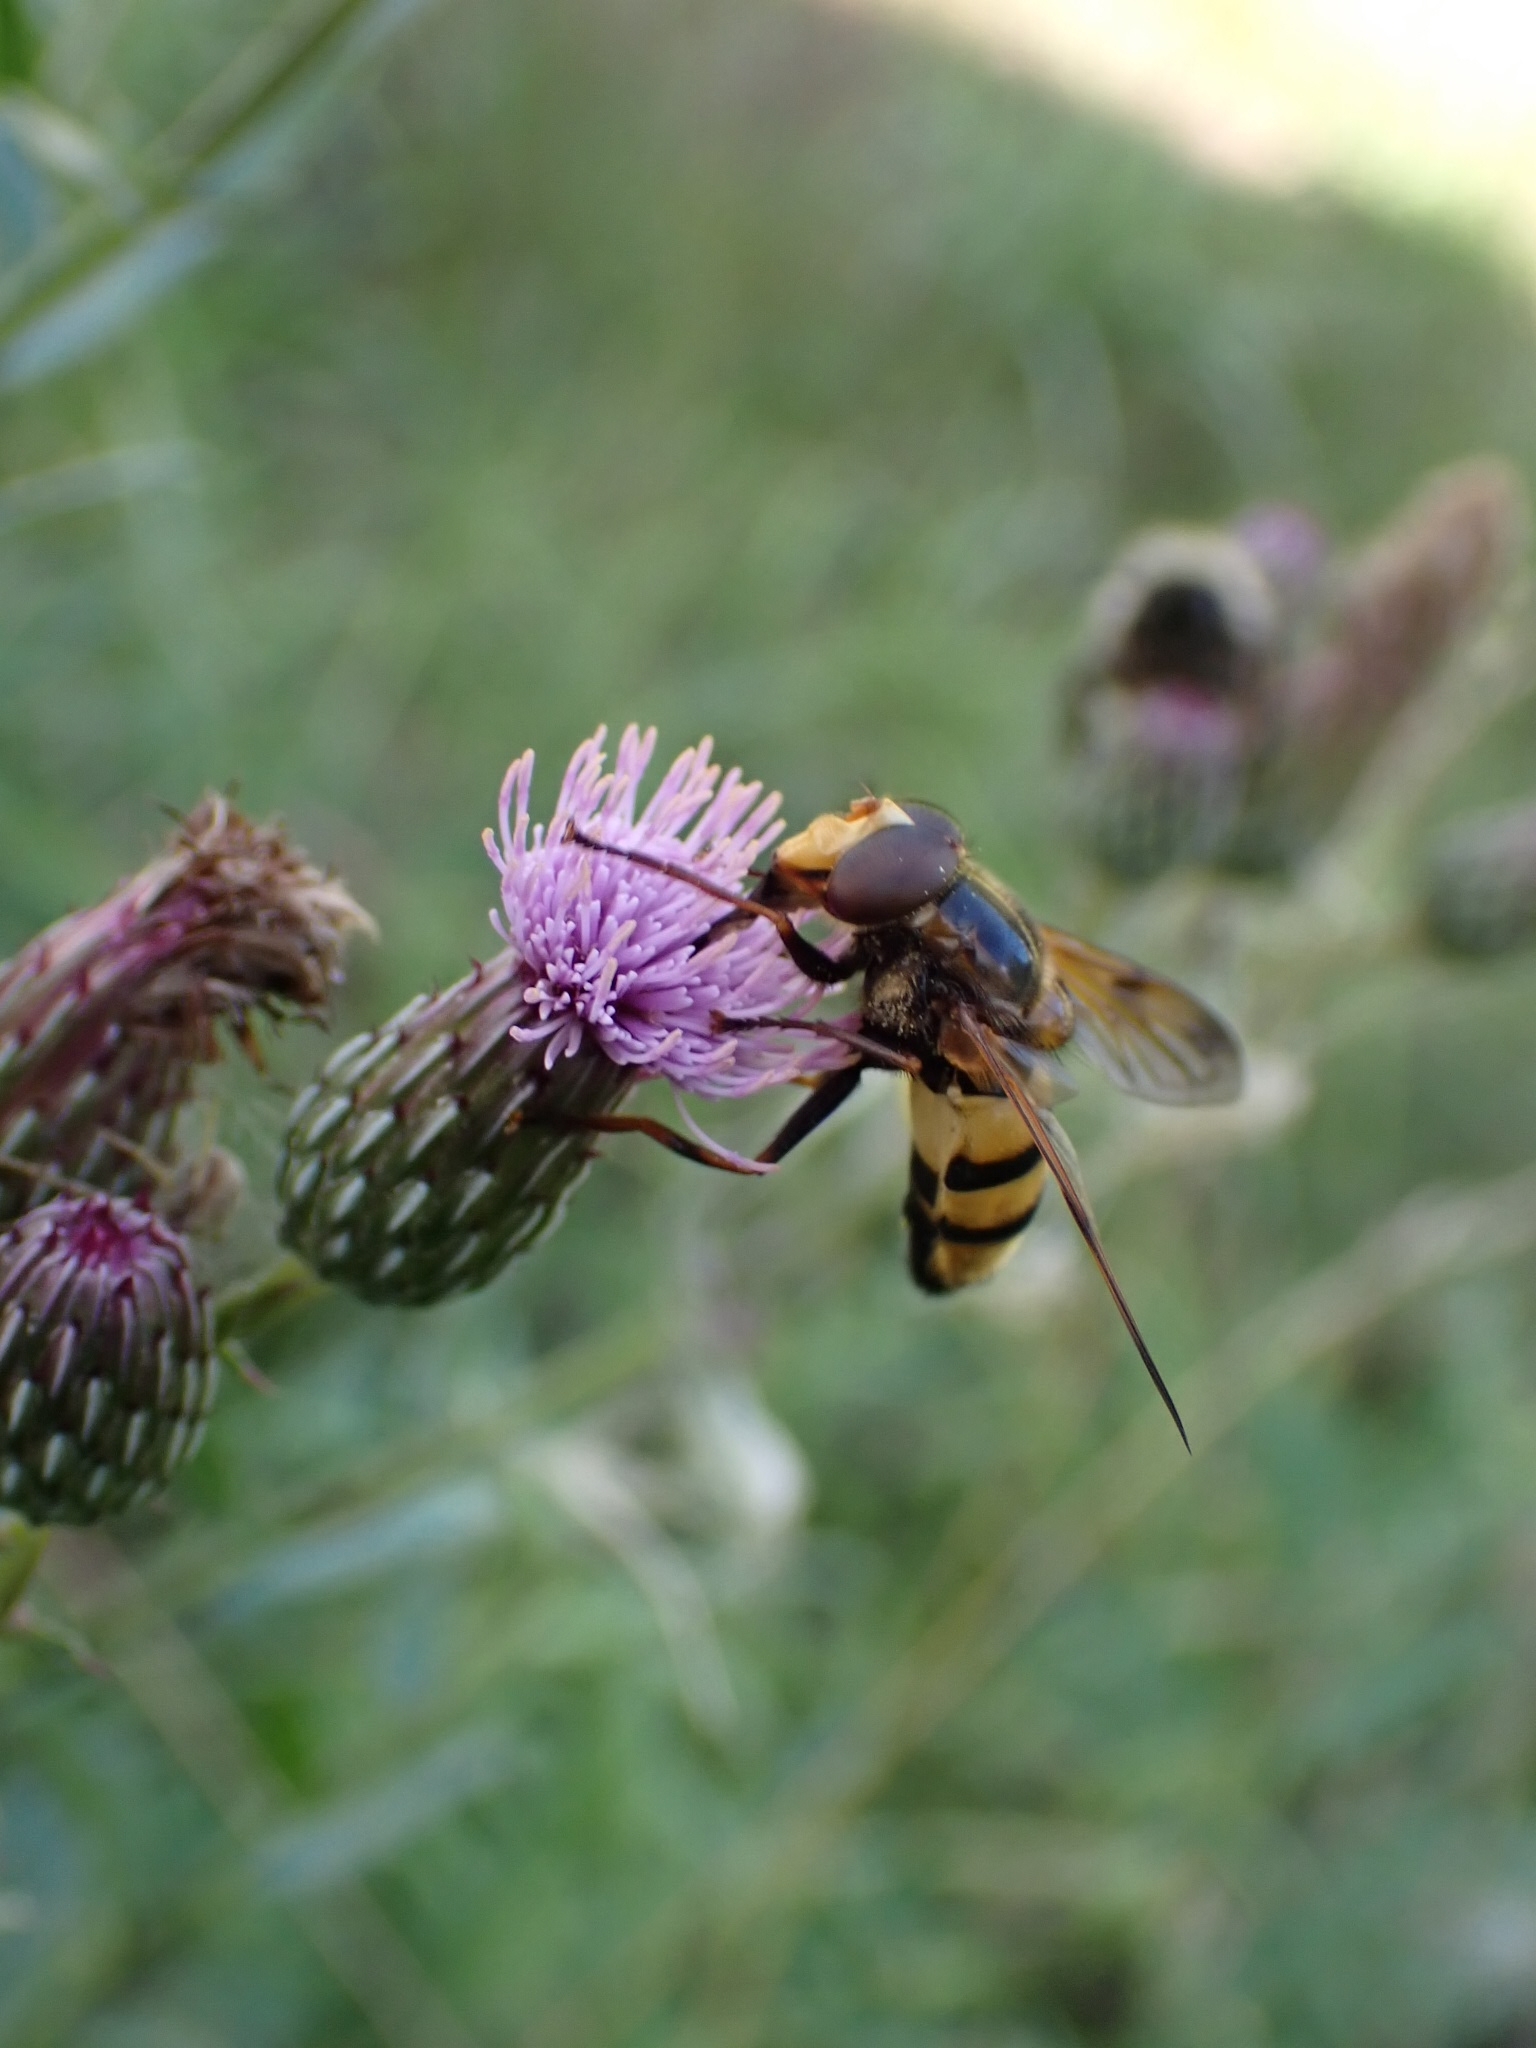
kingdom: Animalia
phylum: Arthropoda
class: Insecta
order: Diptera
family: Syrphidae
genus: Volucella
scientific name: Volucella inanis
